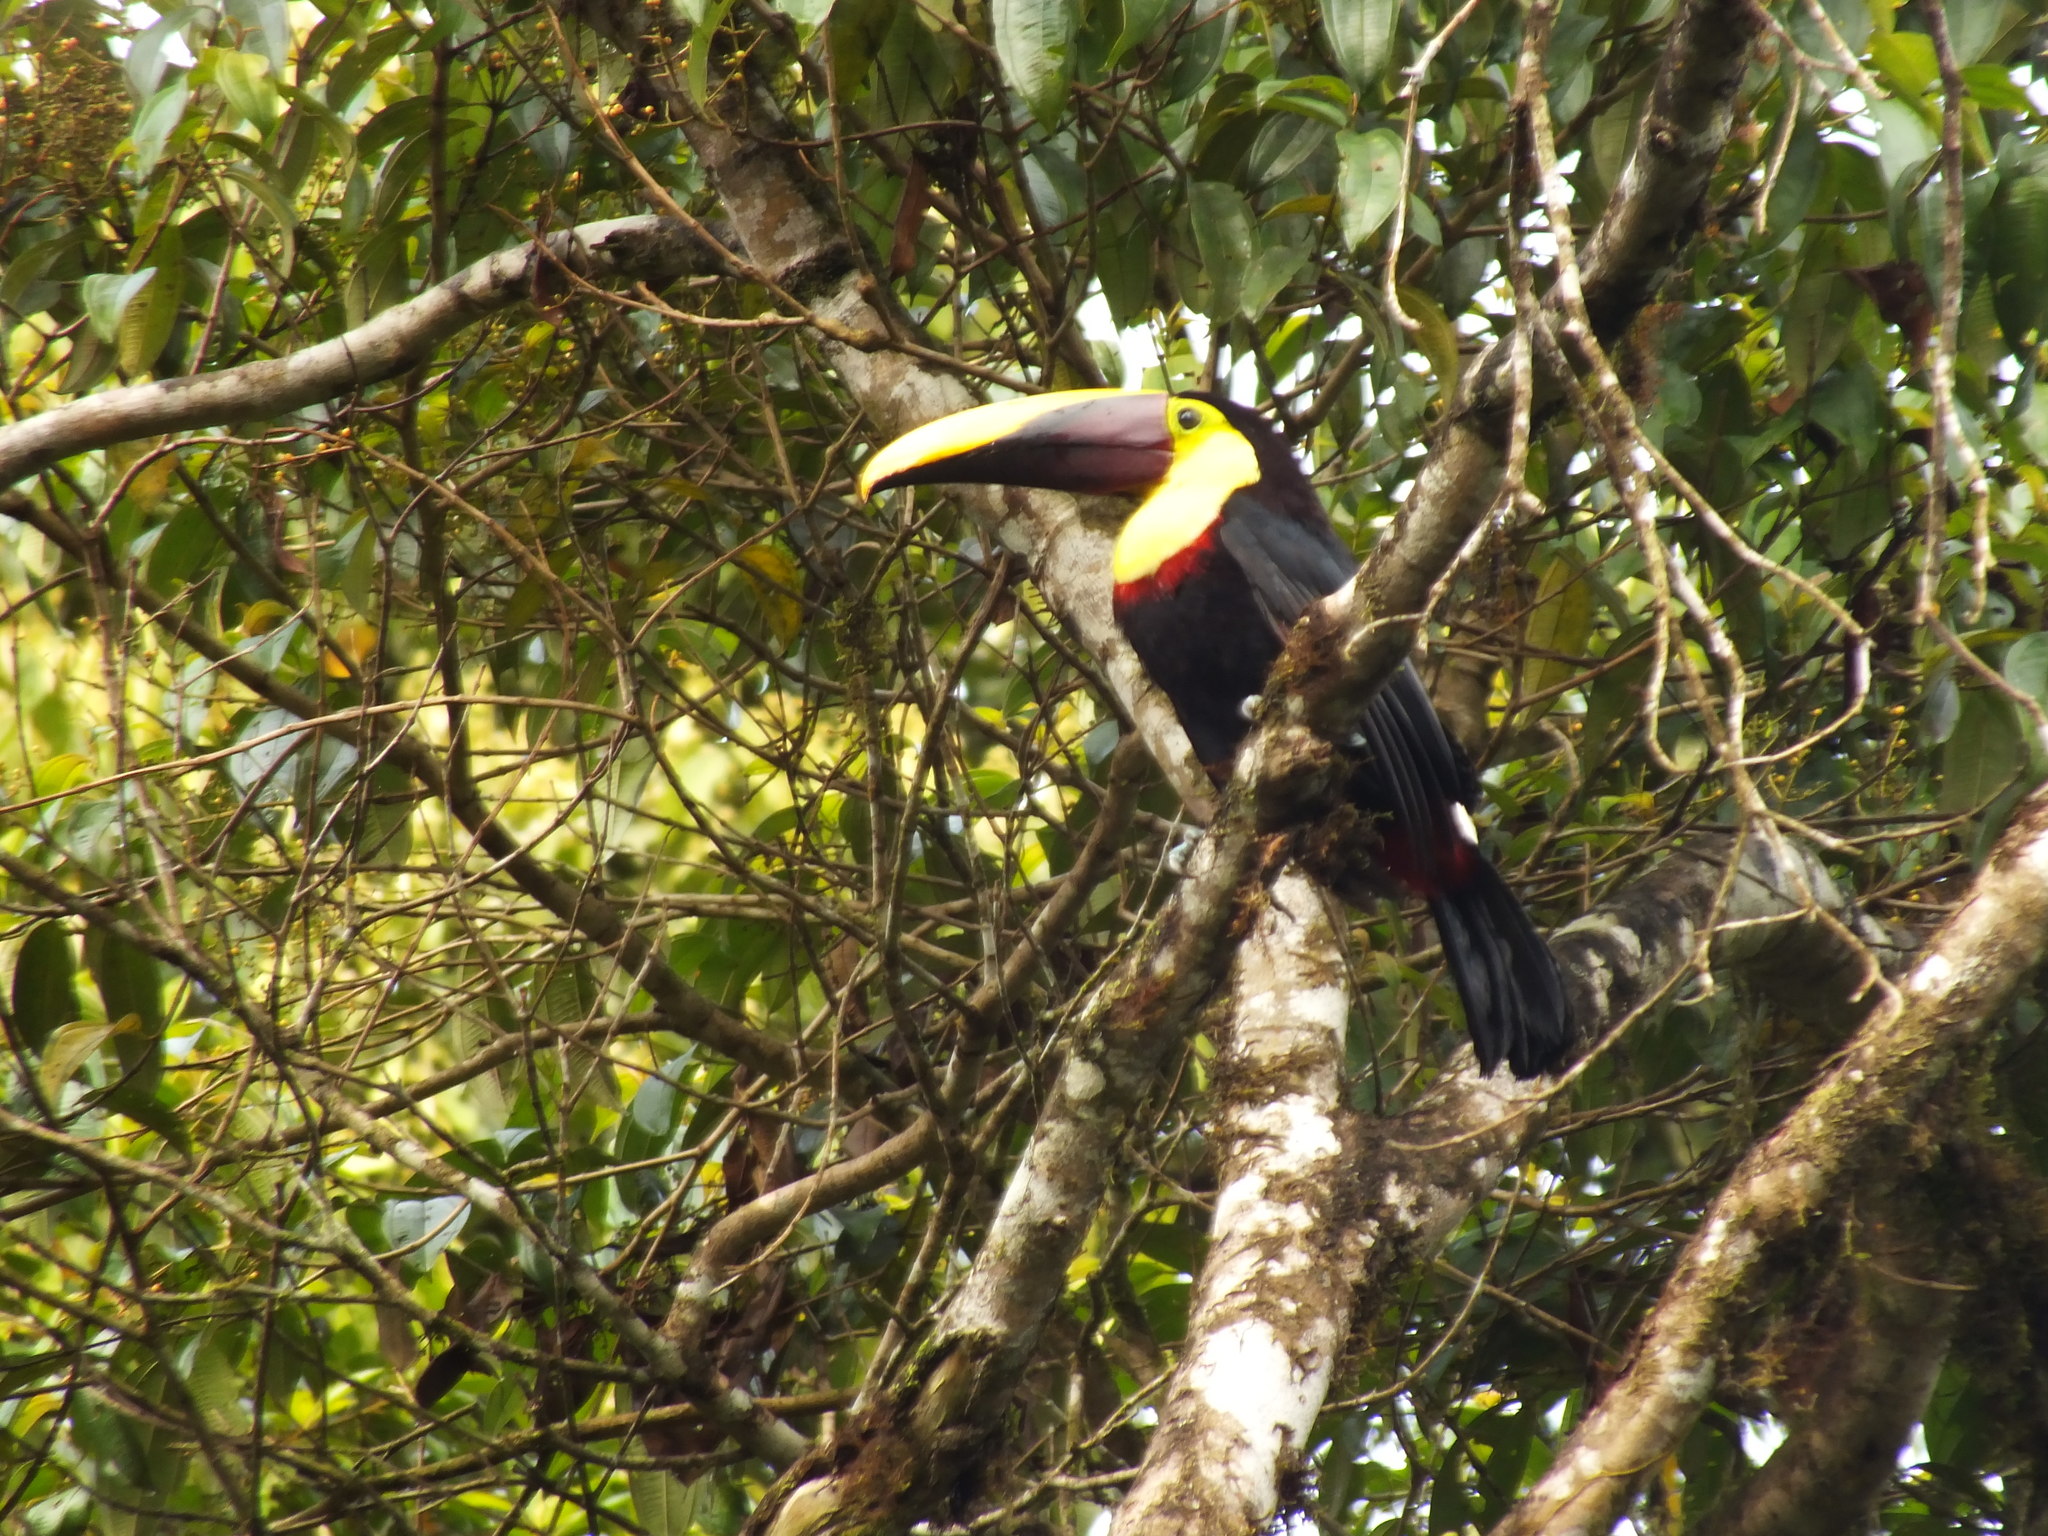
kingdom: Animalia
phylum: Chordata
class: Aves
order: Piciformes
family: Ramphastidae
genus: Ramphastos
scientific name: Ramphastos ambiguus
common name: Yellow-throated toucan
